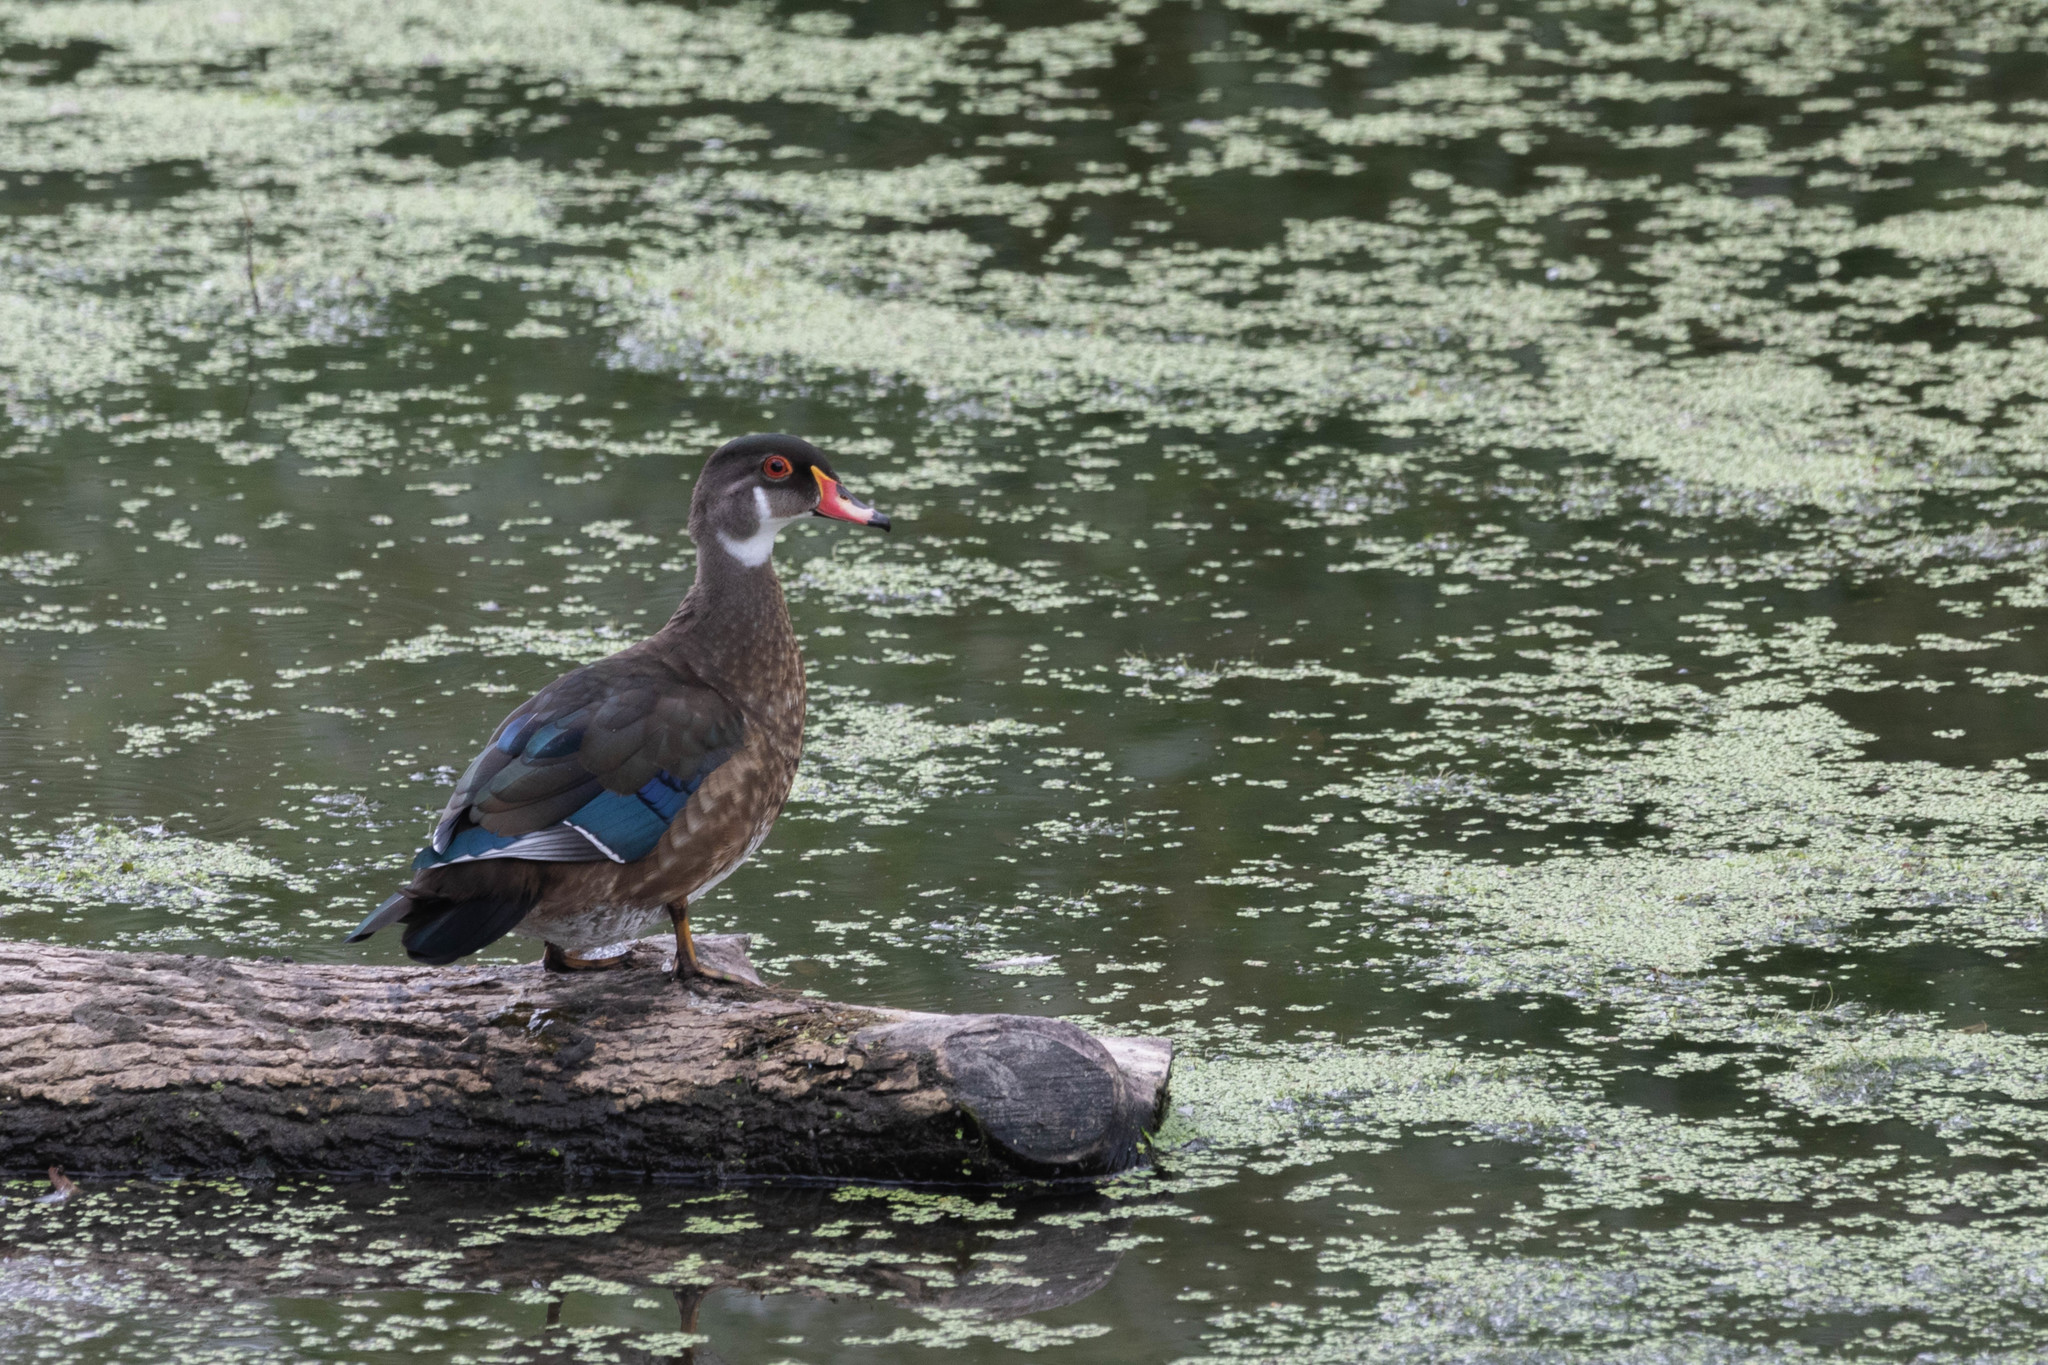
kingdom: Animalia
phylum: Chordata
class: Aves
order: Anseriformes
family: Anatidae
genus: Aix
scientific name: Aix sponsa
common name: Wood duck
